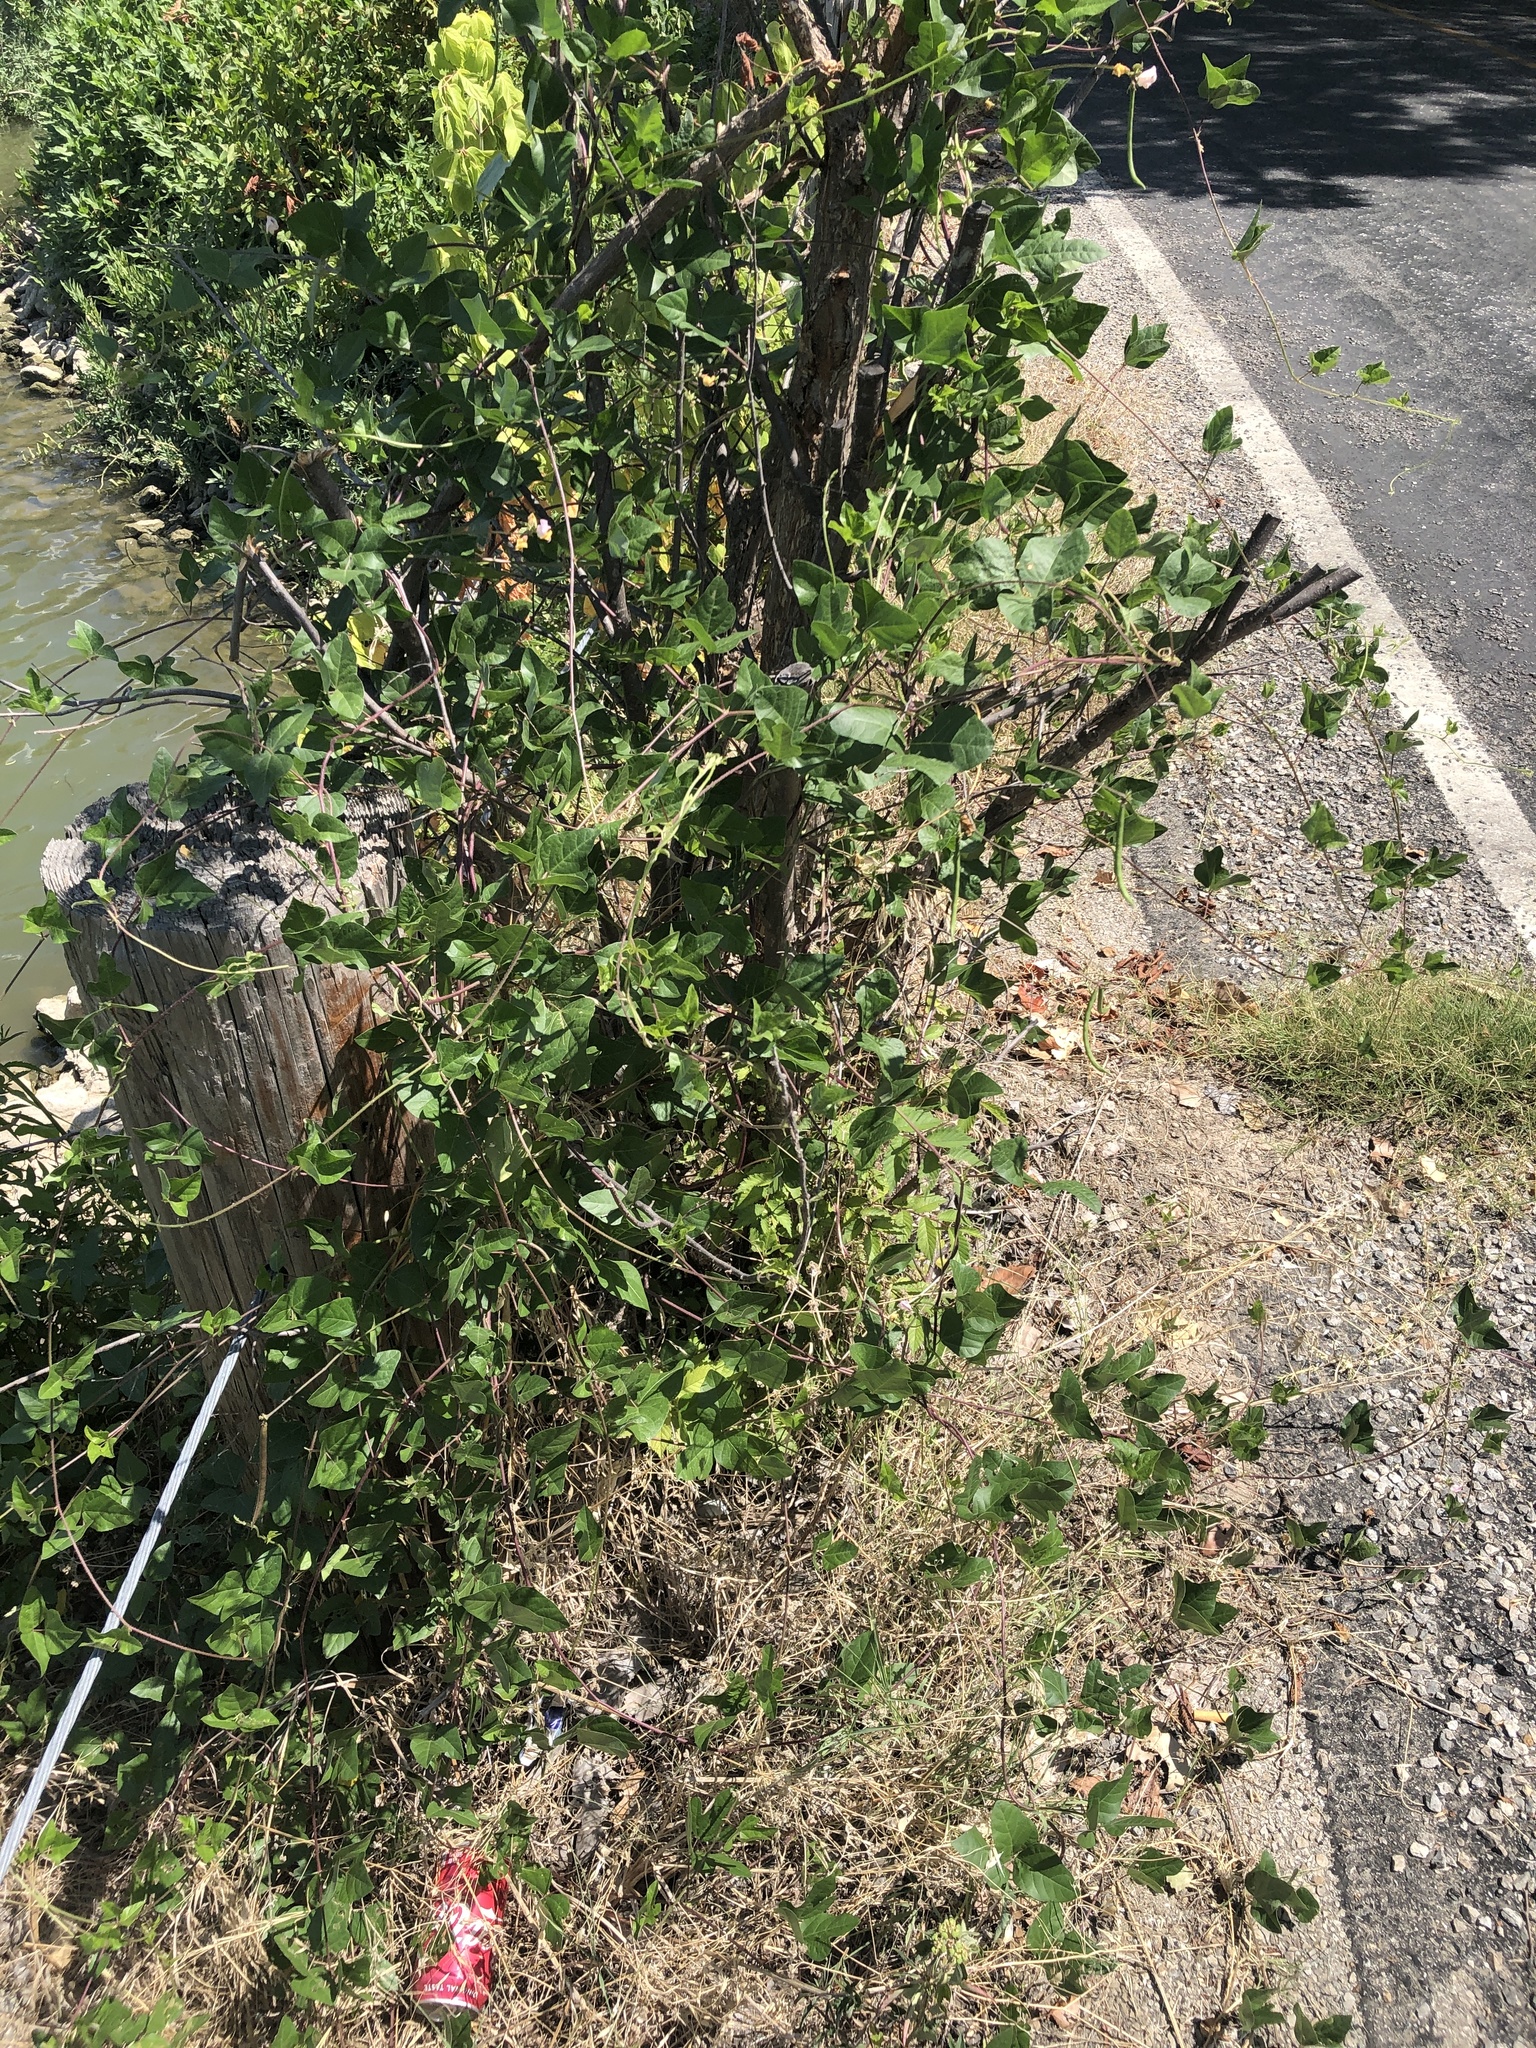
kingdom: Plantae
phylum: Tracheophyta
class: Magnoliopsida
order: Fabales
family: Fabaceae
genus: Strophostyles
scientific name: Strophostyles helvola
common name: Trailing wild bean
